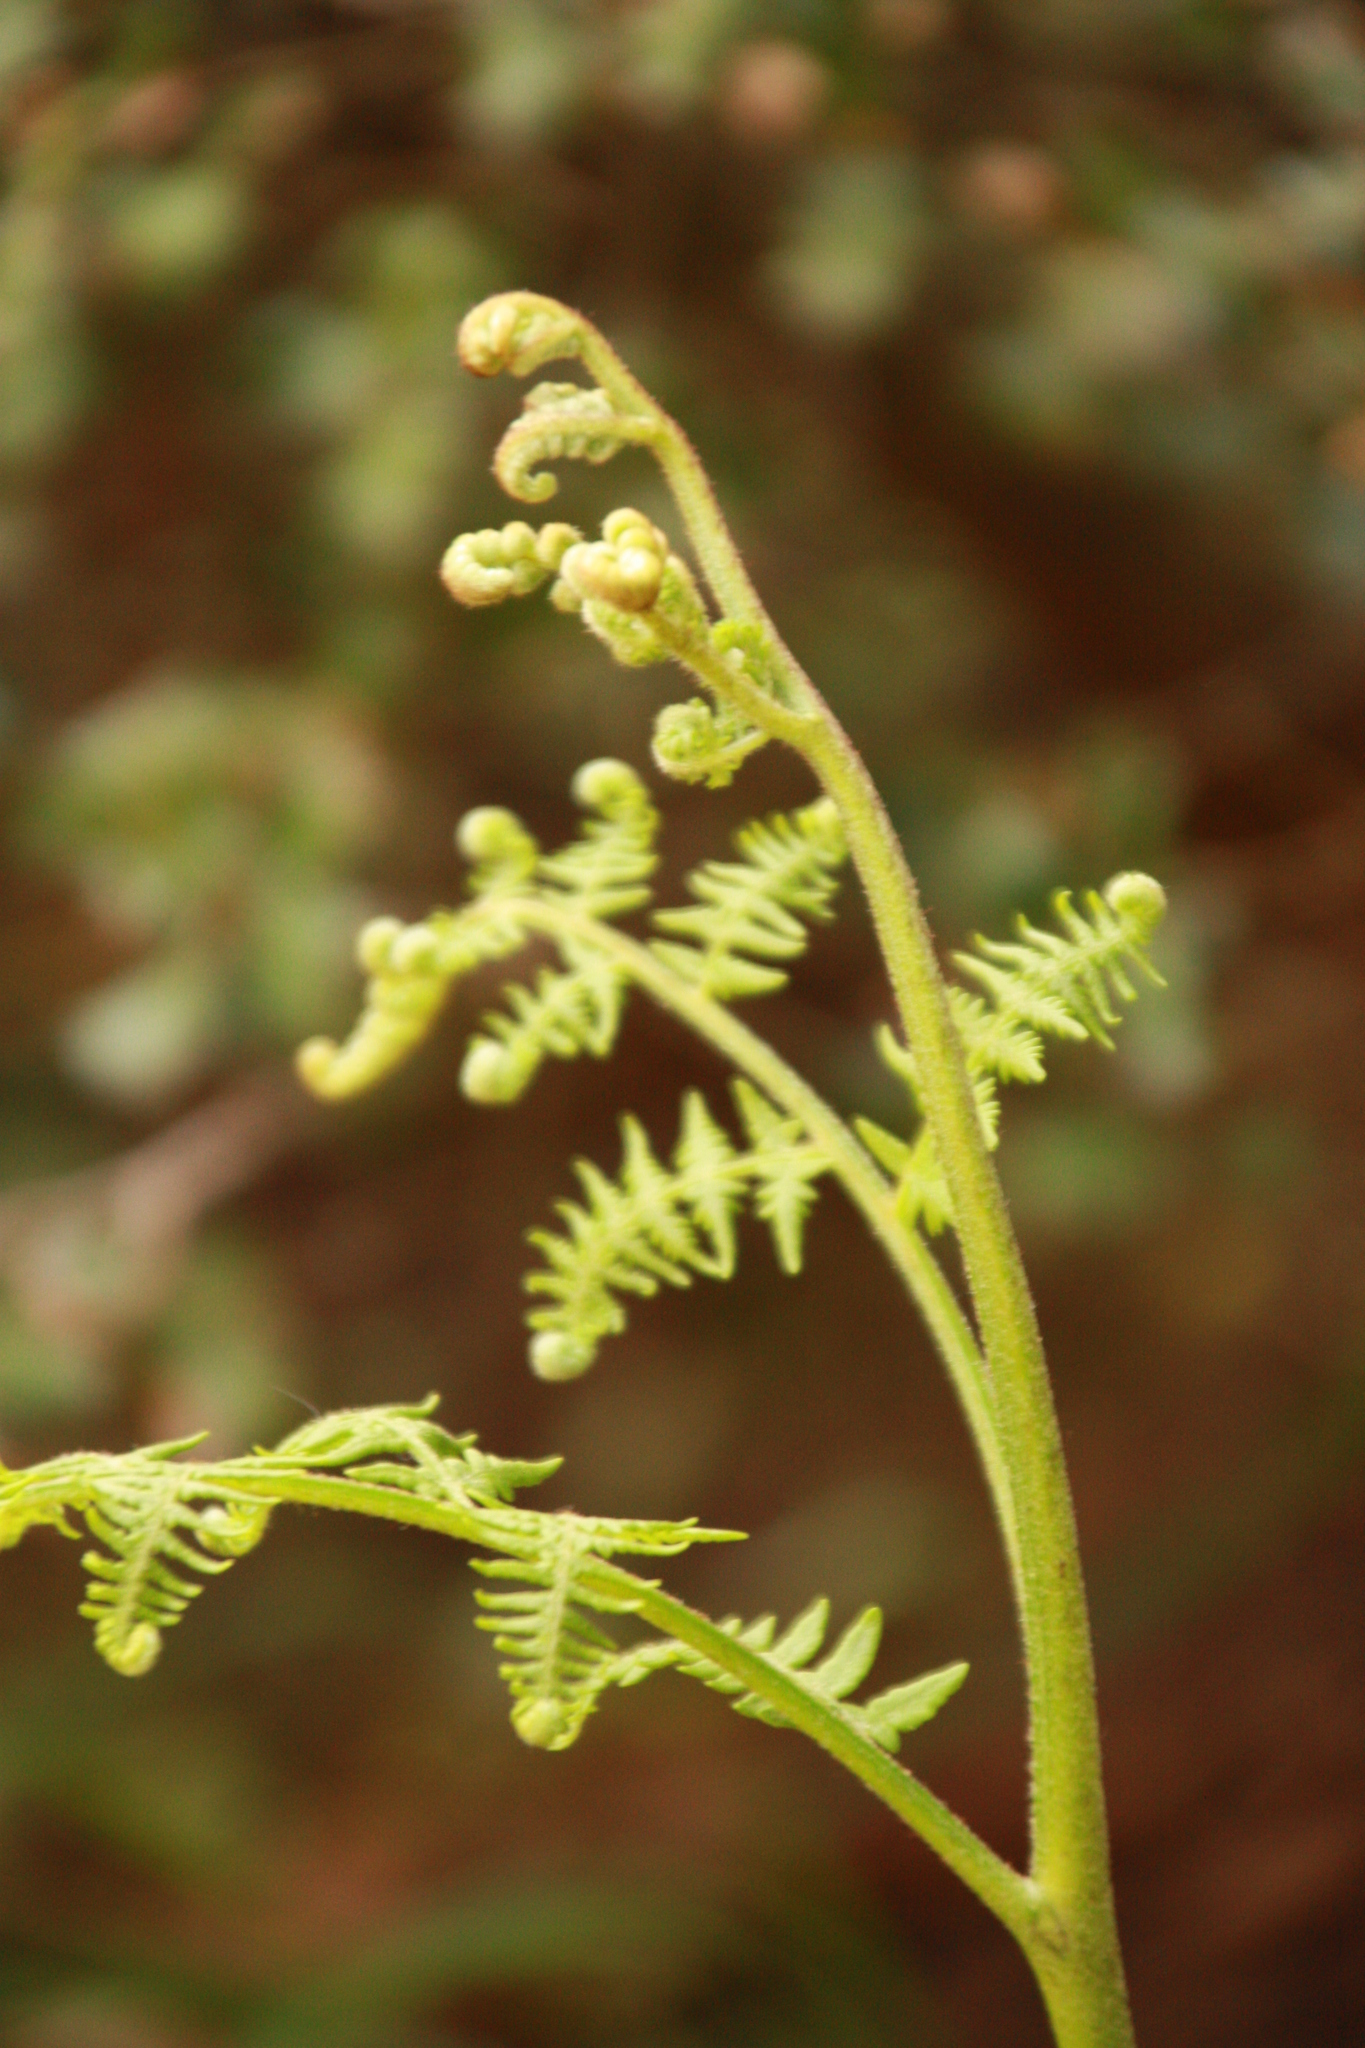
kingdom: Plantae
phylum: Tracheophyta
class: Polypodiopsida
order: Polypodiales
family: Dennstaedtiaceae
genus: Pteridium
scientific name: Pteridium aquilinum
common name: Bracken
